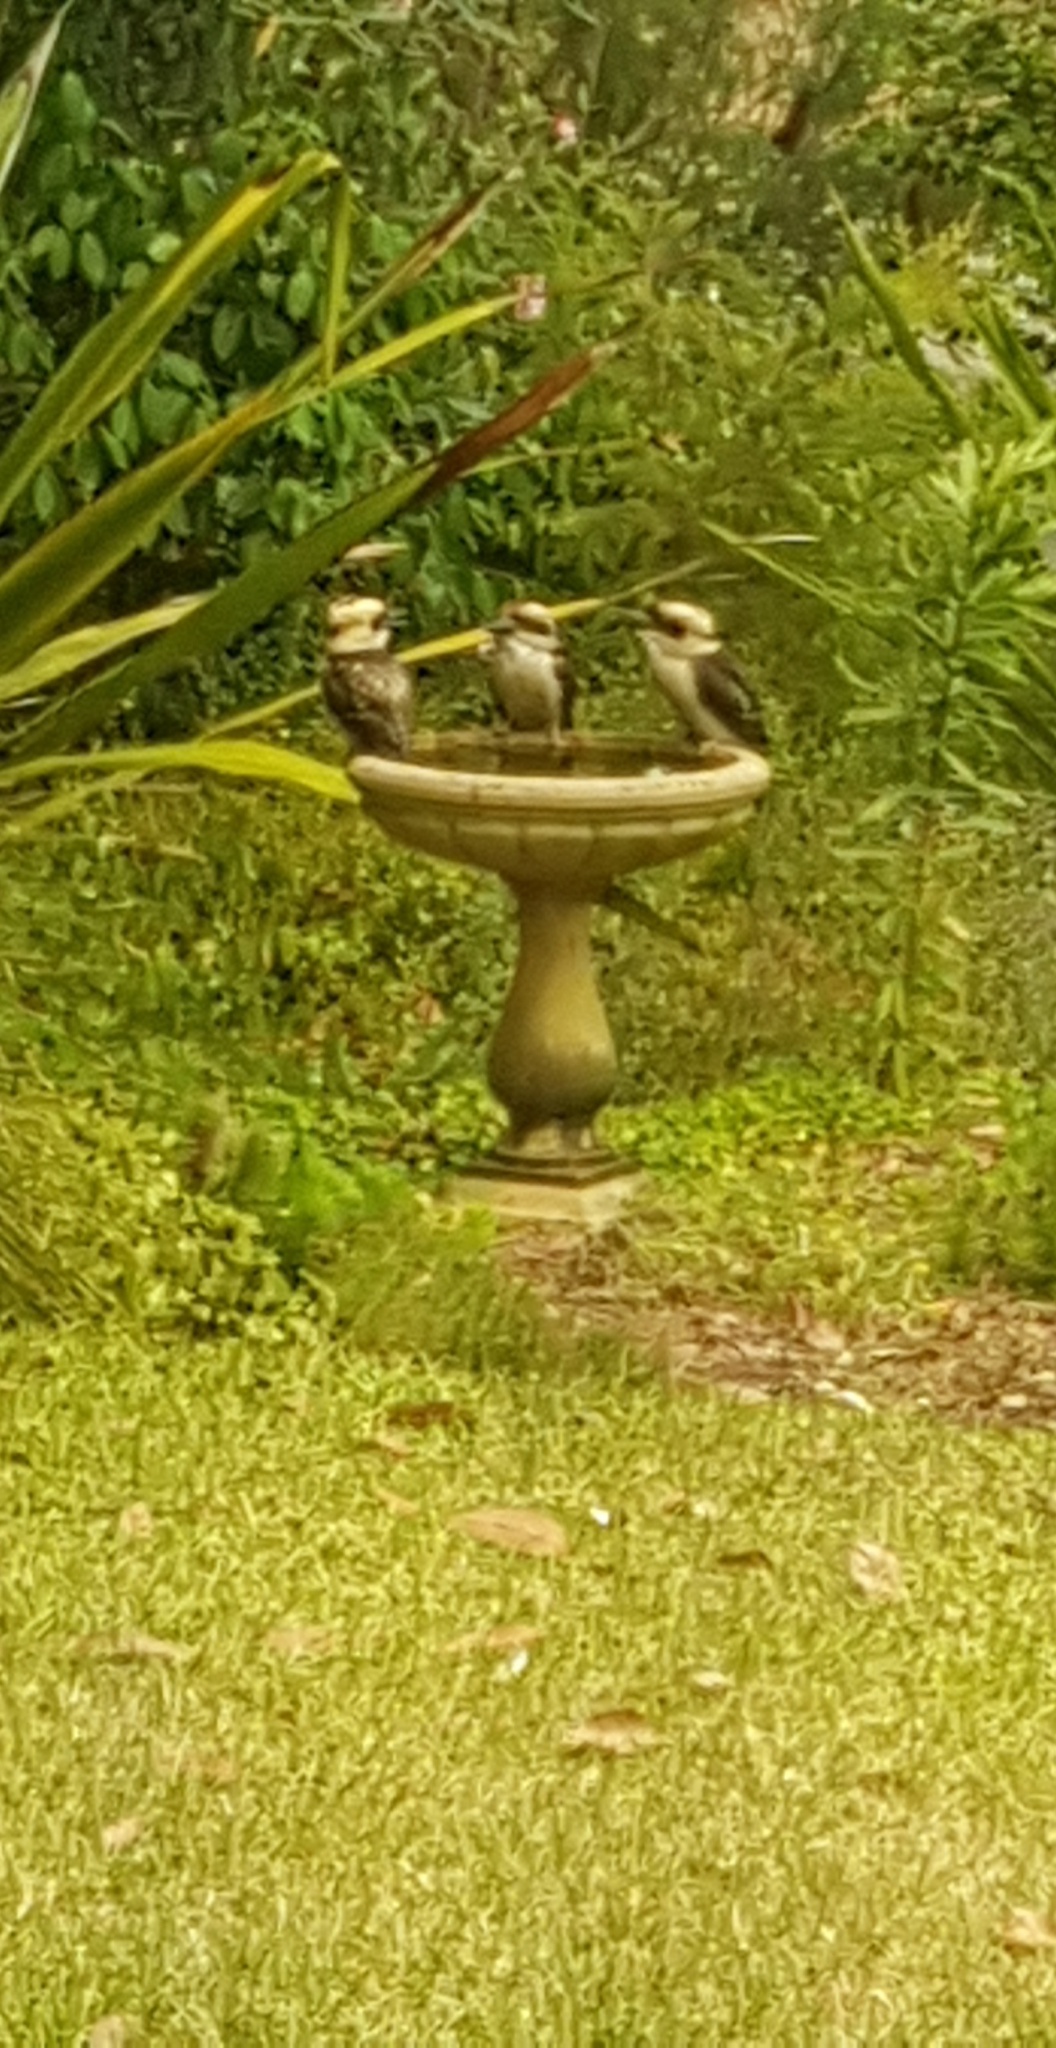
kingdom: Animalia
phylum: Chordata
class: Aves
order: Coraciiformes
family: Alcedinidae
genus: Dacelo
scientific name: Dacelo novaeguineae
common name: Laughing kookaburra
